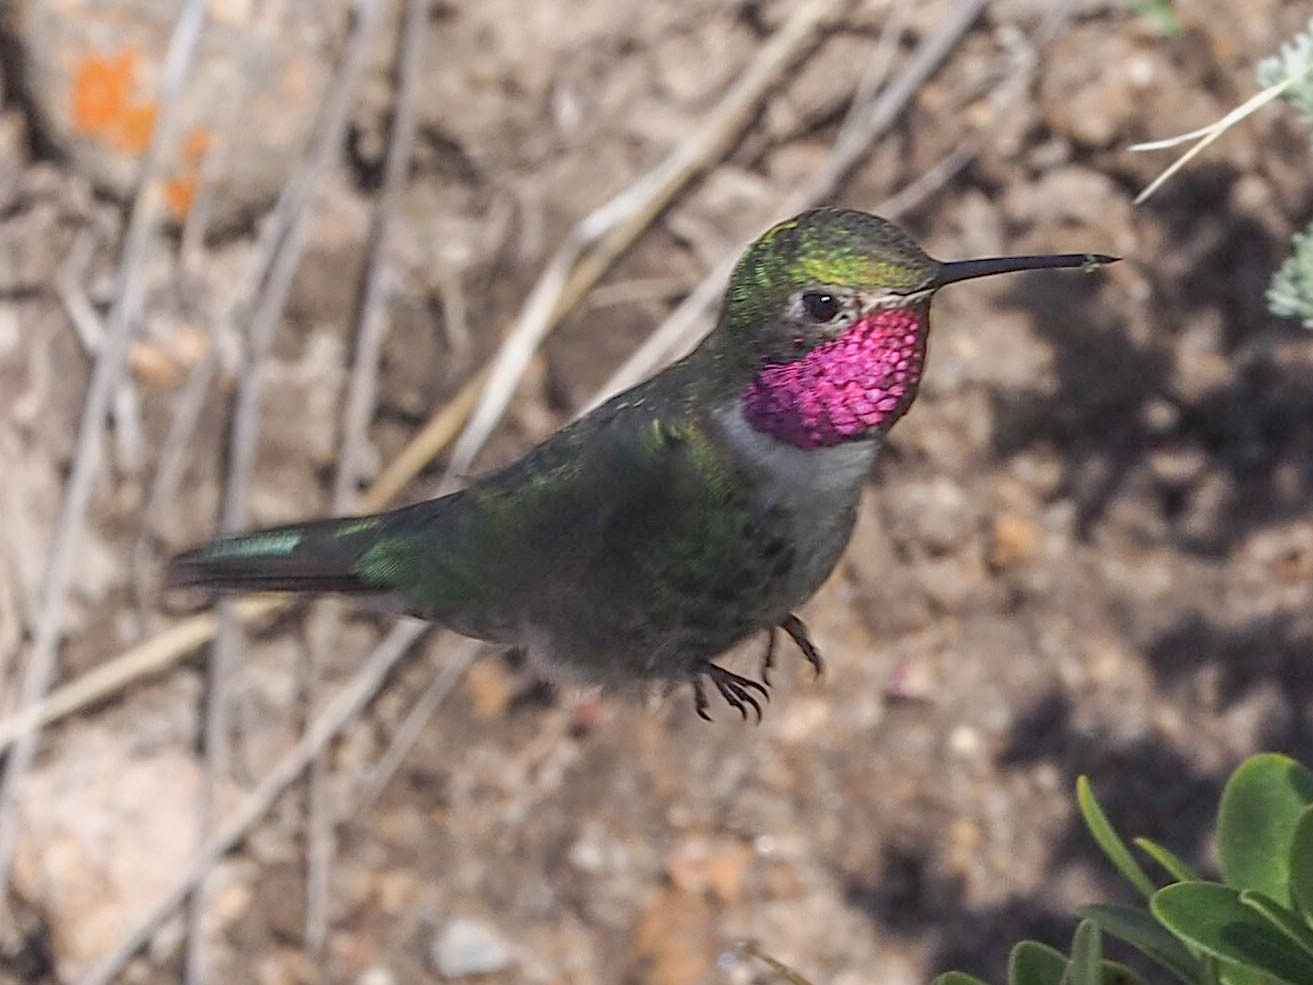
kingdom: Animalia
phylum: Chordata
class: Aves
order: Apodiformes
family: Trochilidae
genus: Selasphorus
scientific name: Selasphorus platycercus
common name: Broad-tailed hummingbird
